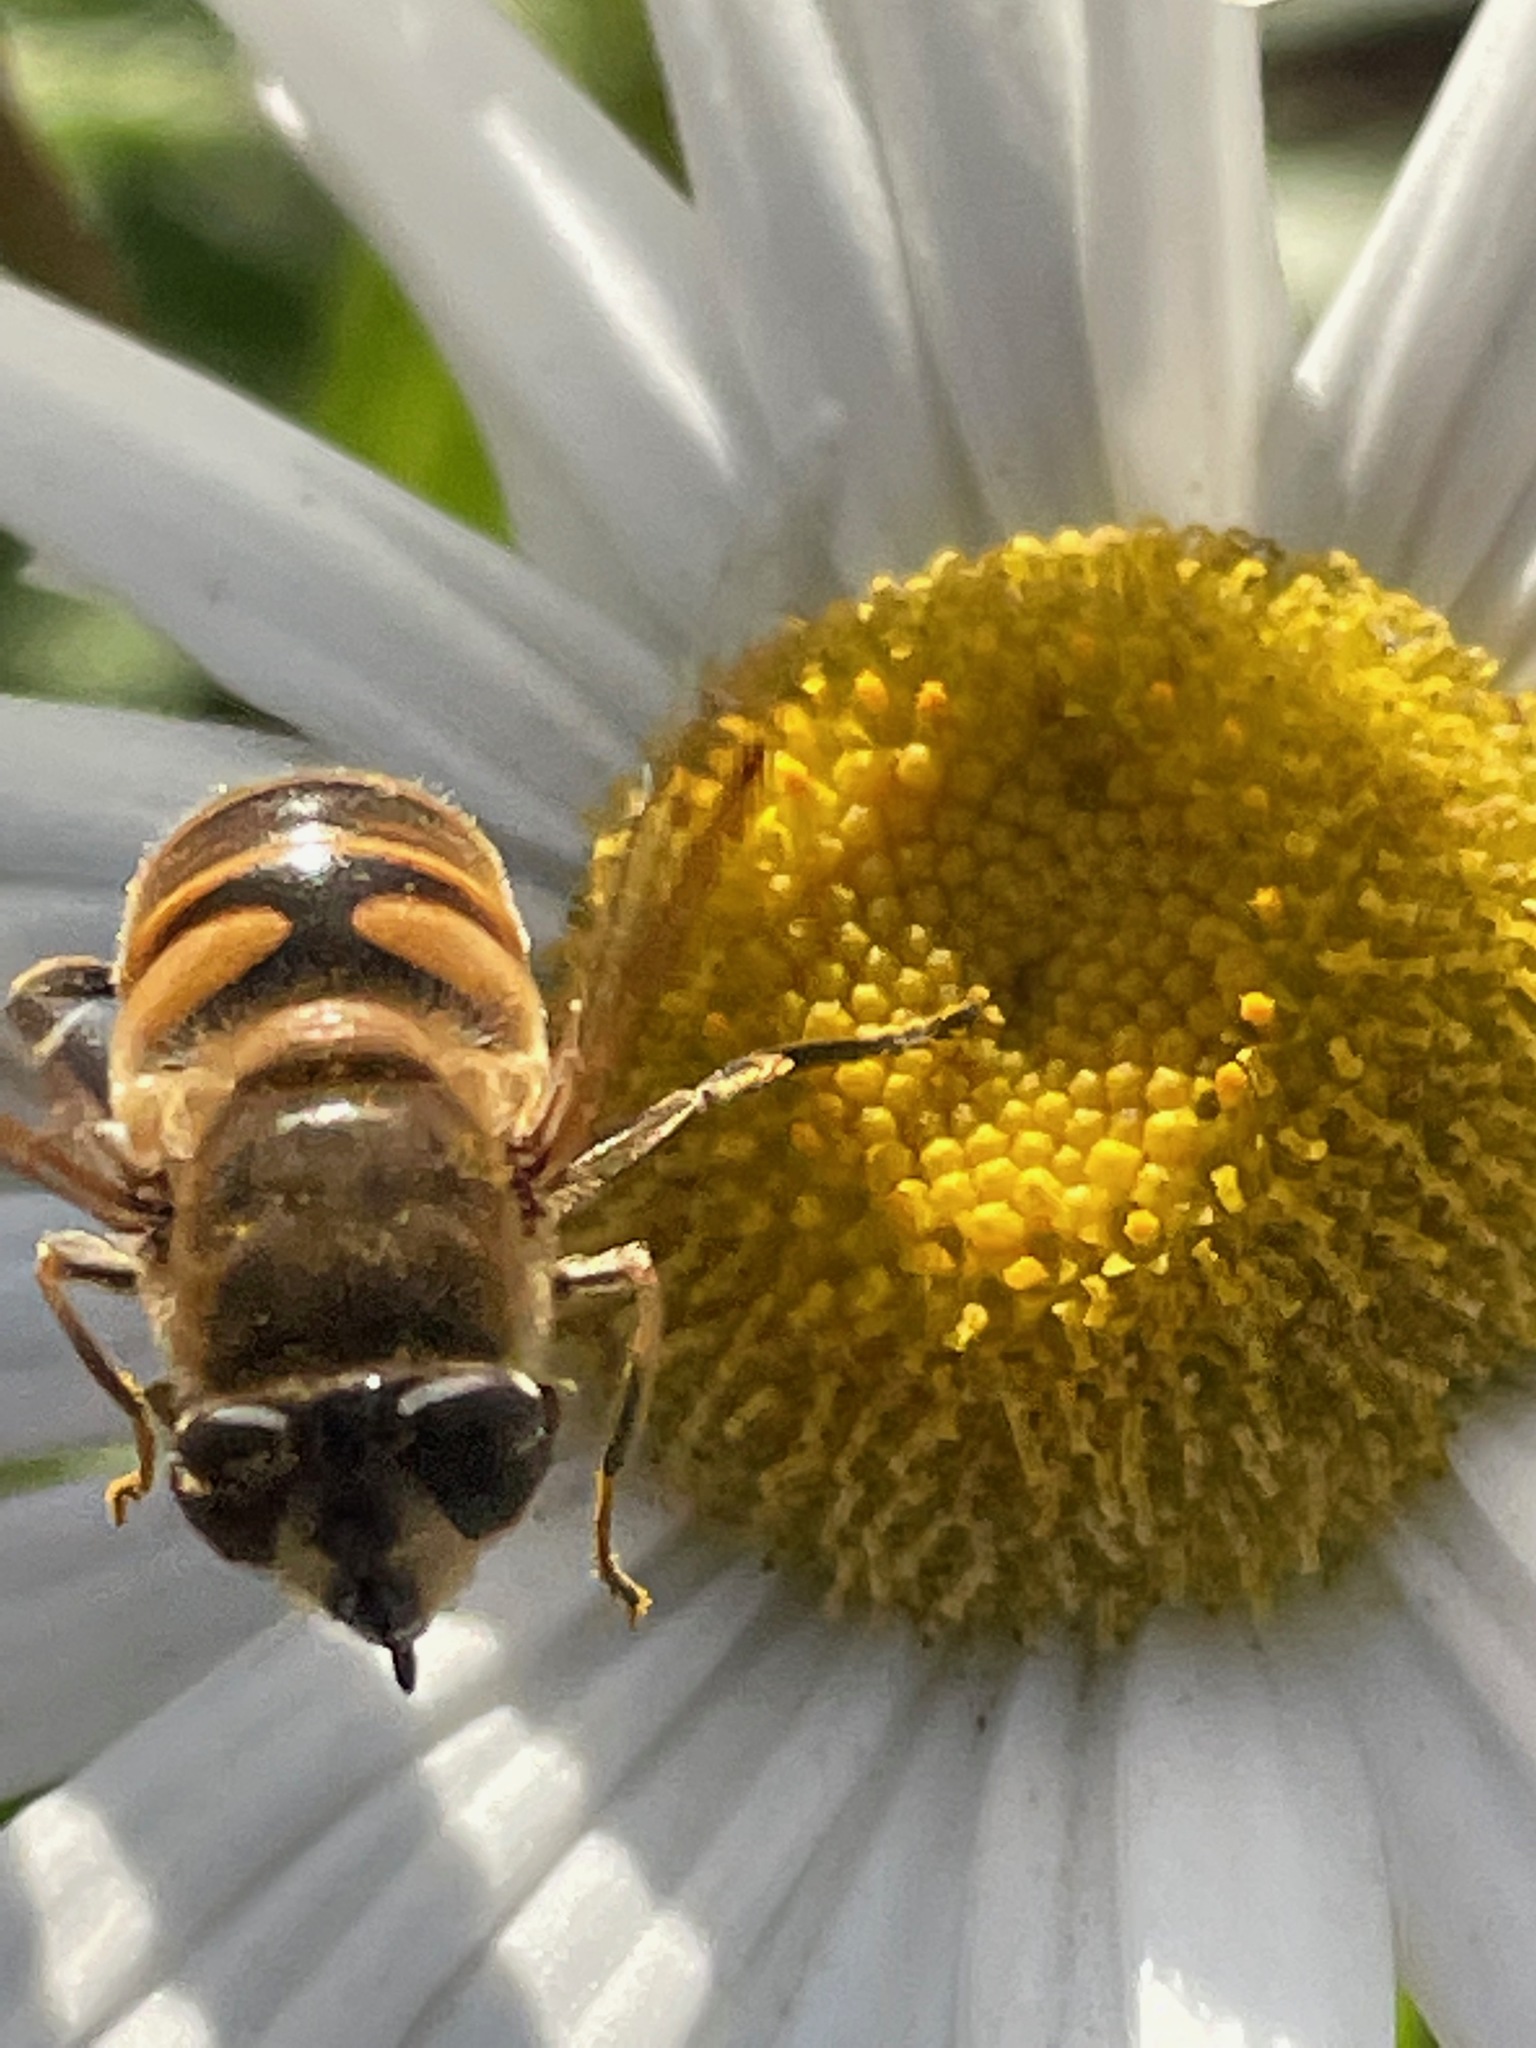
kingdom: Animalia
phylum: Arthropoda
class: Insecta
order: Diptera
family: Syrphidae
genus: Eristalis
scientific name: Eristalis tenax
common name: Drone fly
